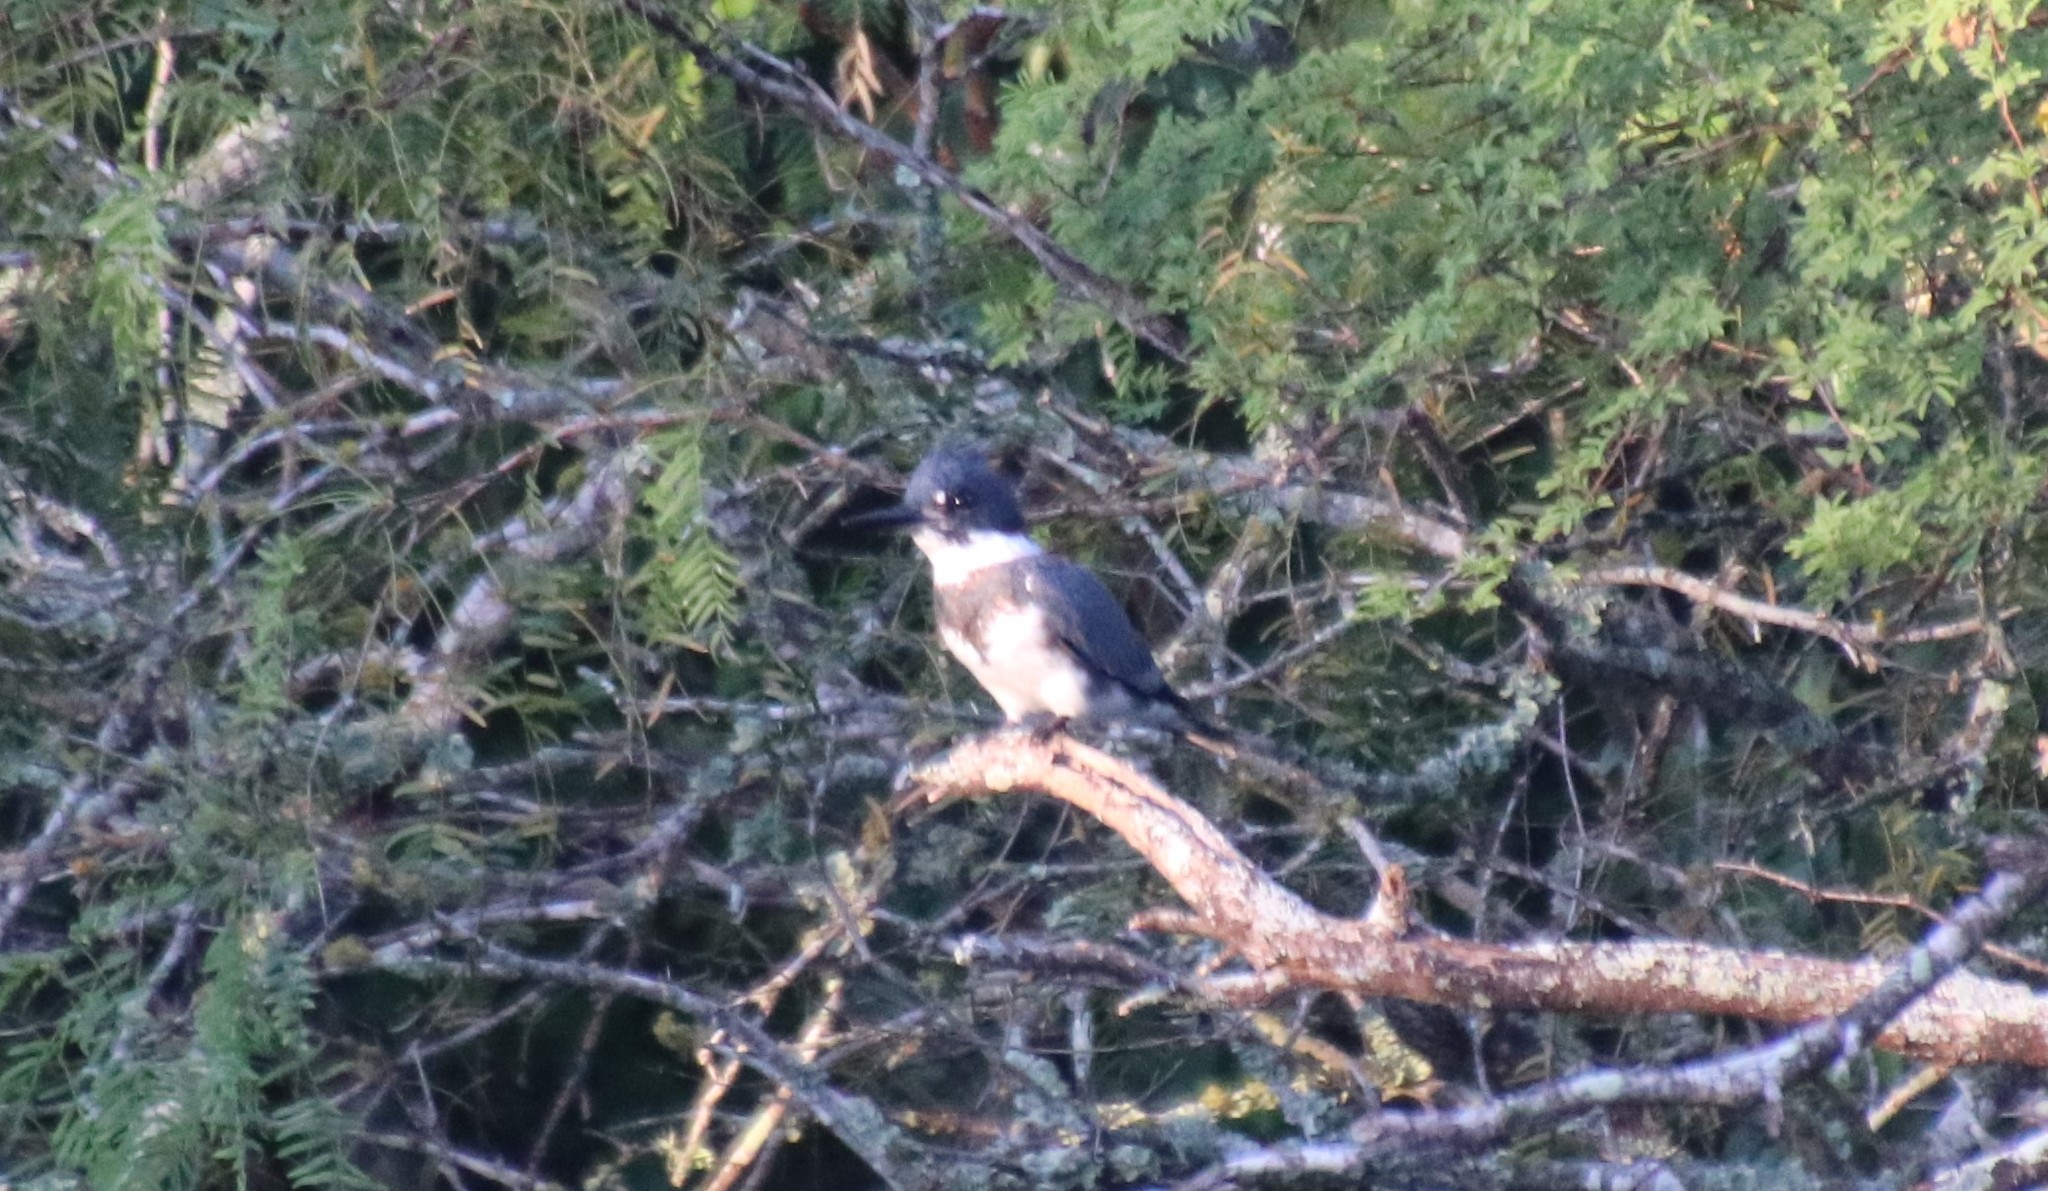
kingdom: Animalia
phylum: Chordata
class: Aves
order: Coraciiformes
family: Alcedinidae
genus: Megaceryle
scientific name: Megaceryle alcyon
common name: Belted kingfisher
